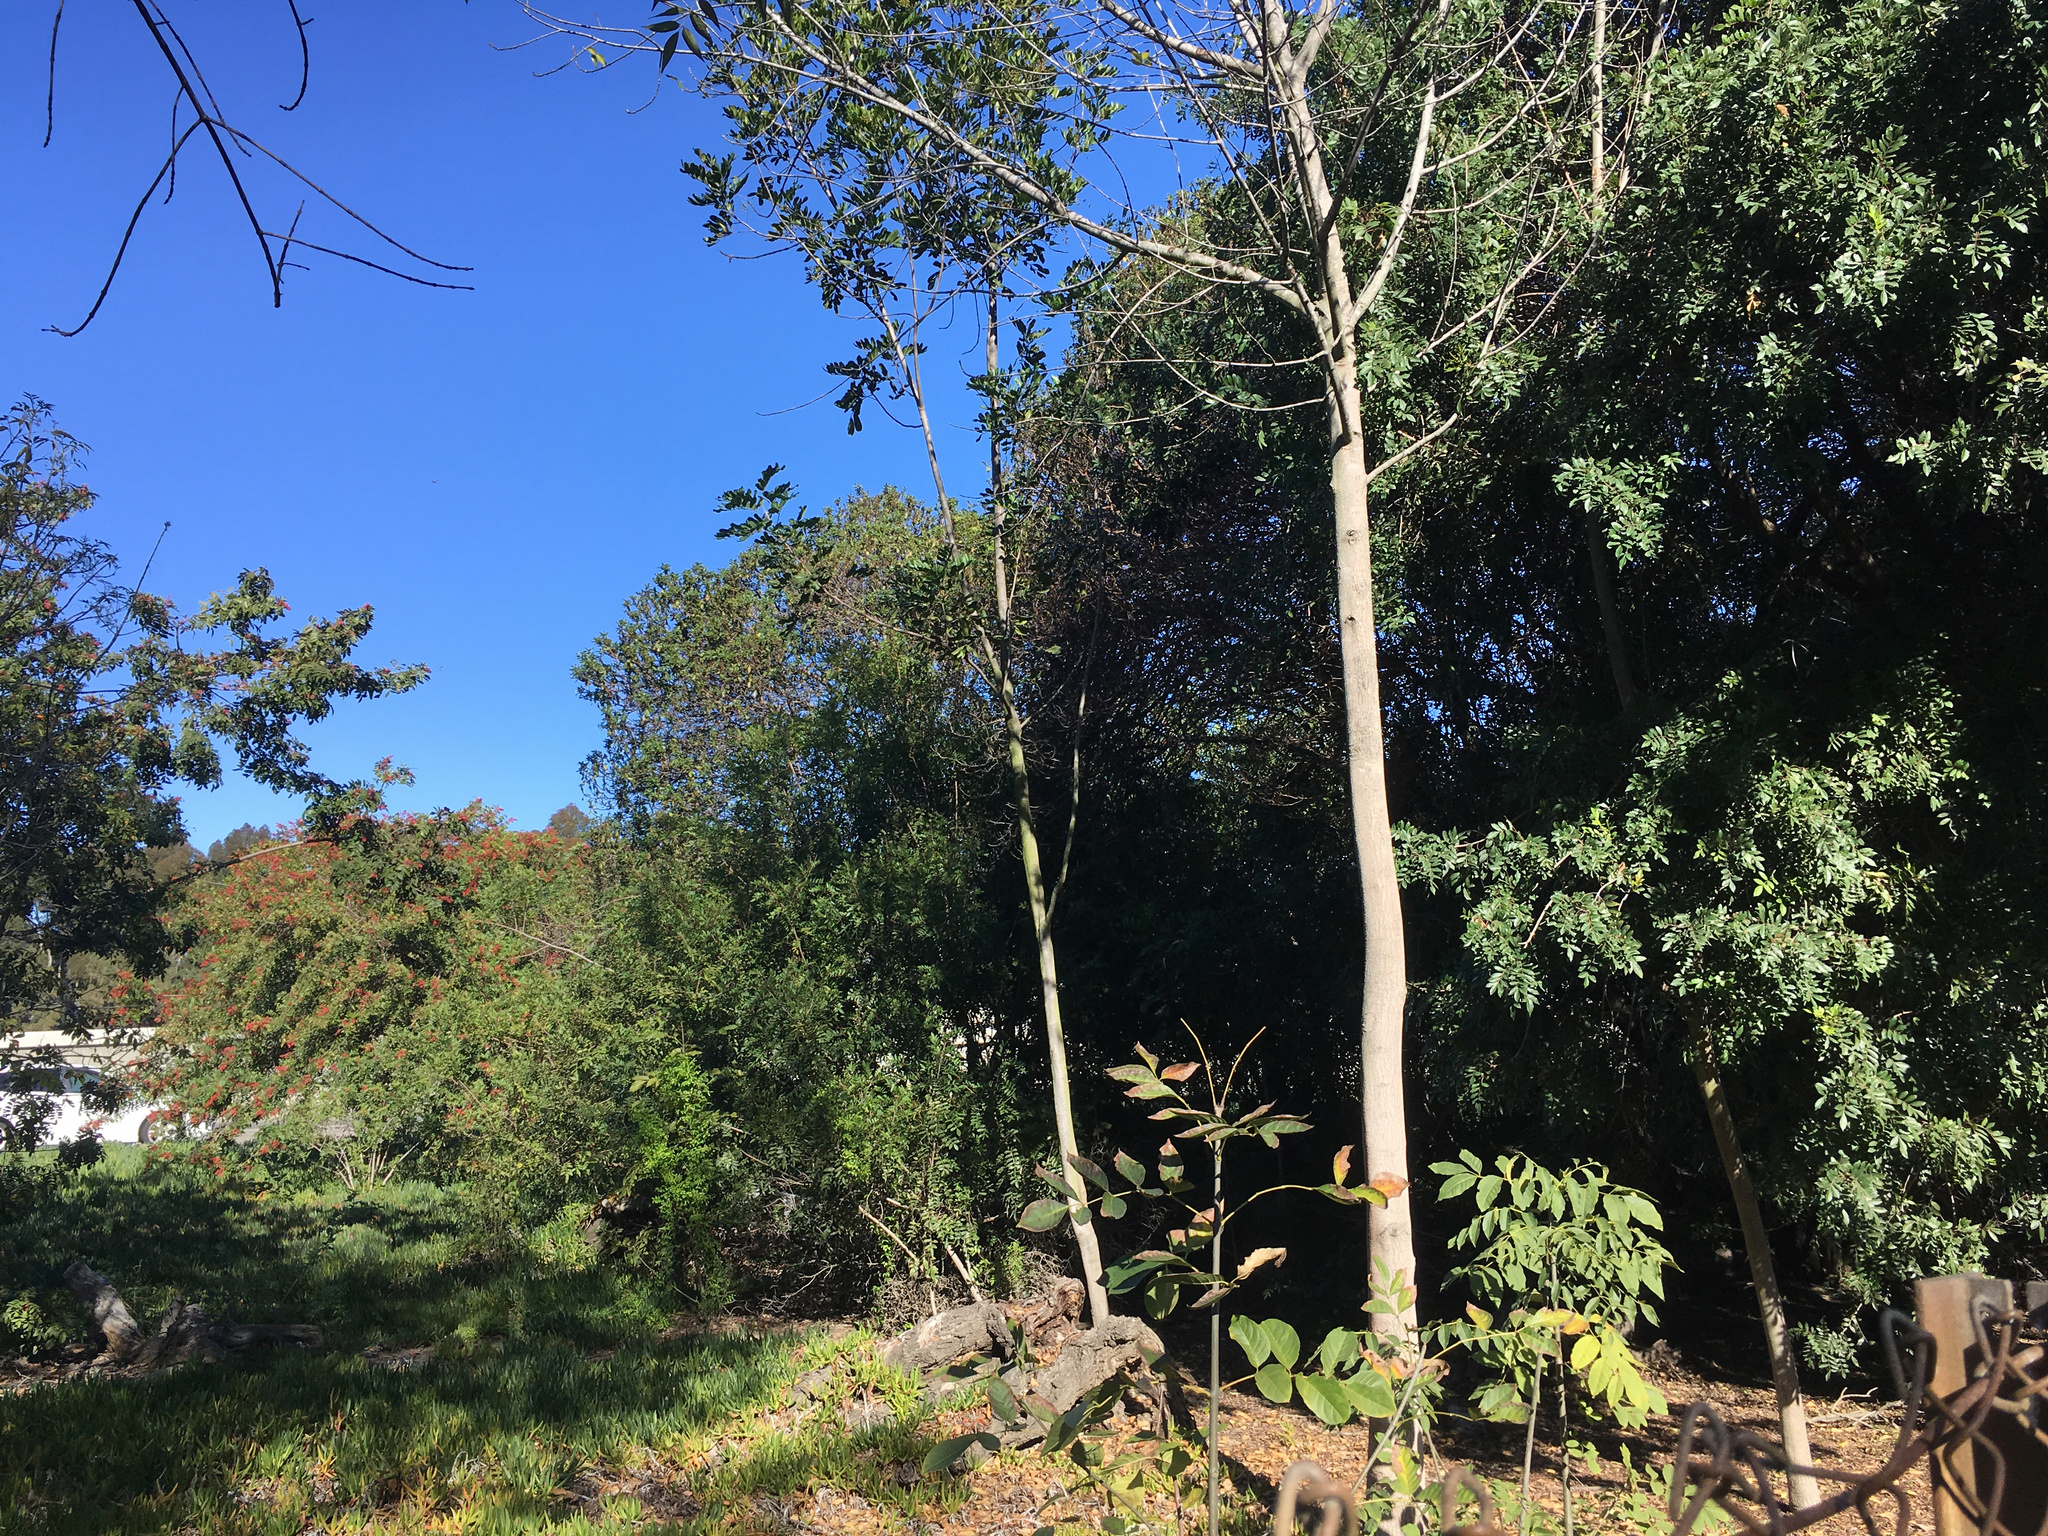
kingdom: Plantae
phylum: Tracheophyta
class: Magnoliopsida
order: Lamiales
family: Scrophulariaceae
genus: Myoporum
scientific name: Myoporum laetum
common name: Ngaio tree
